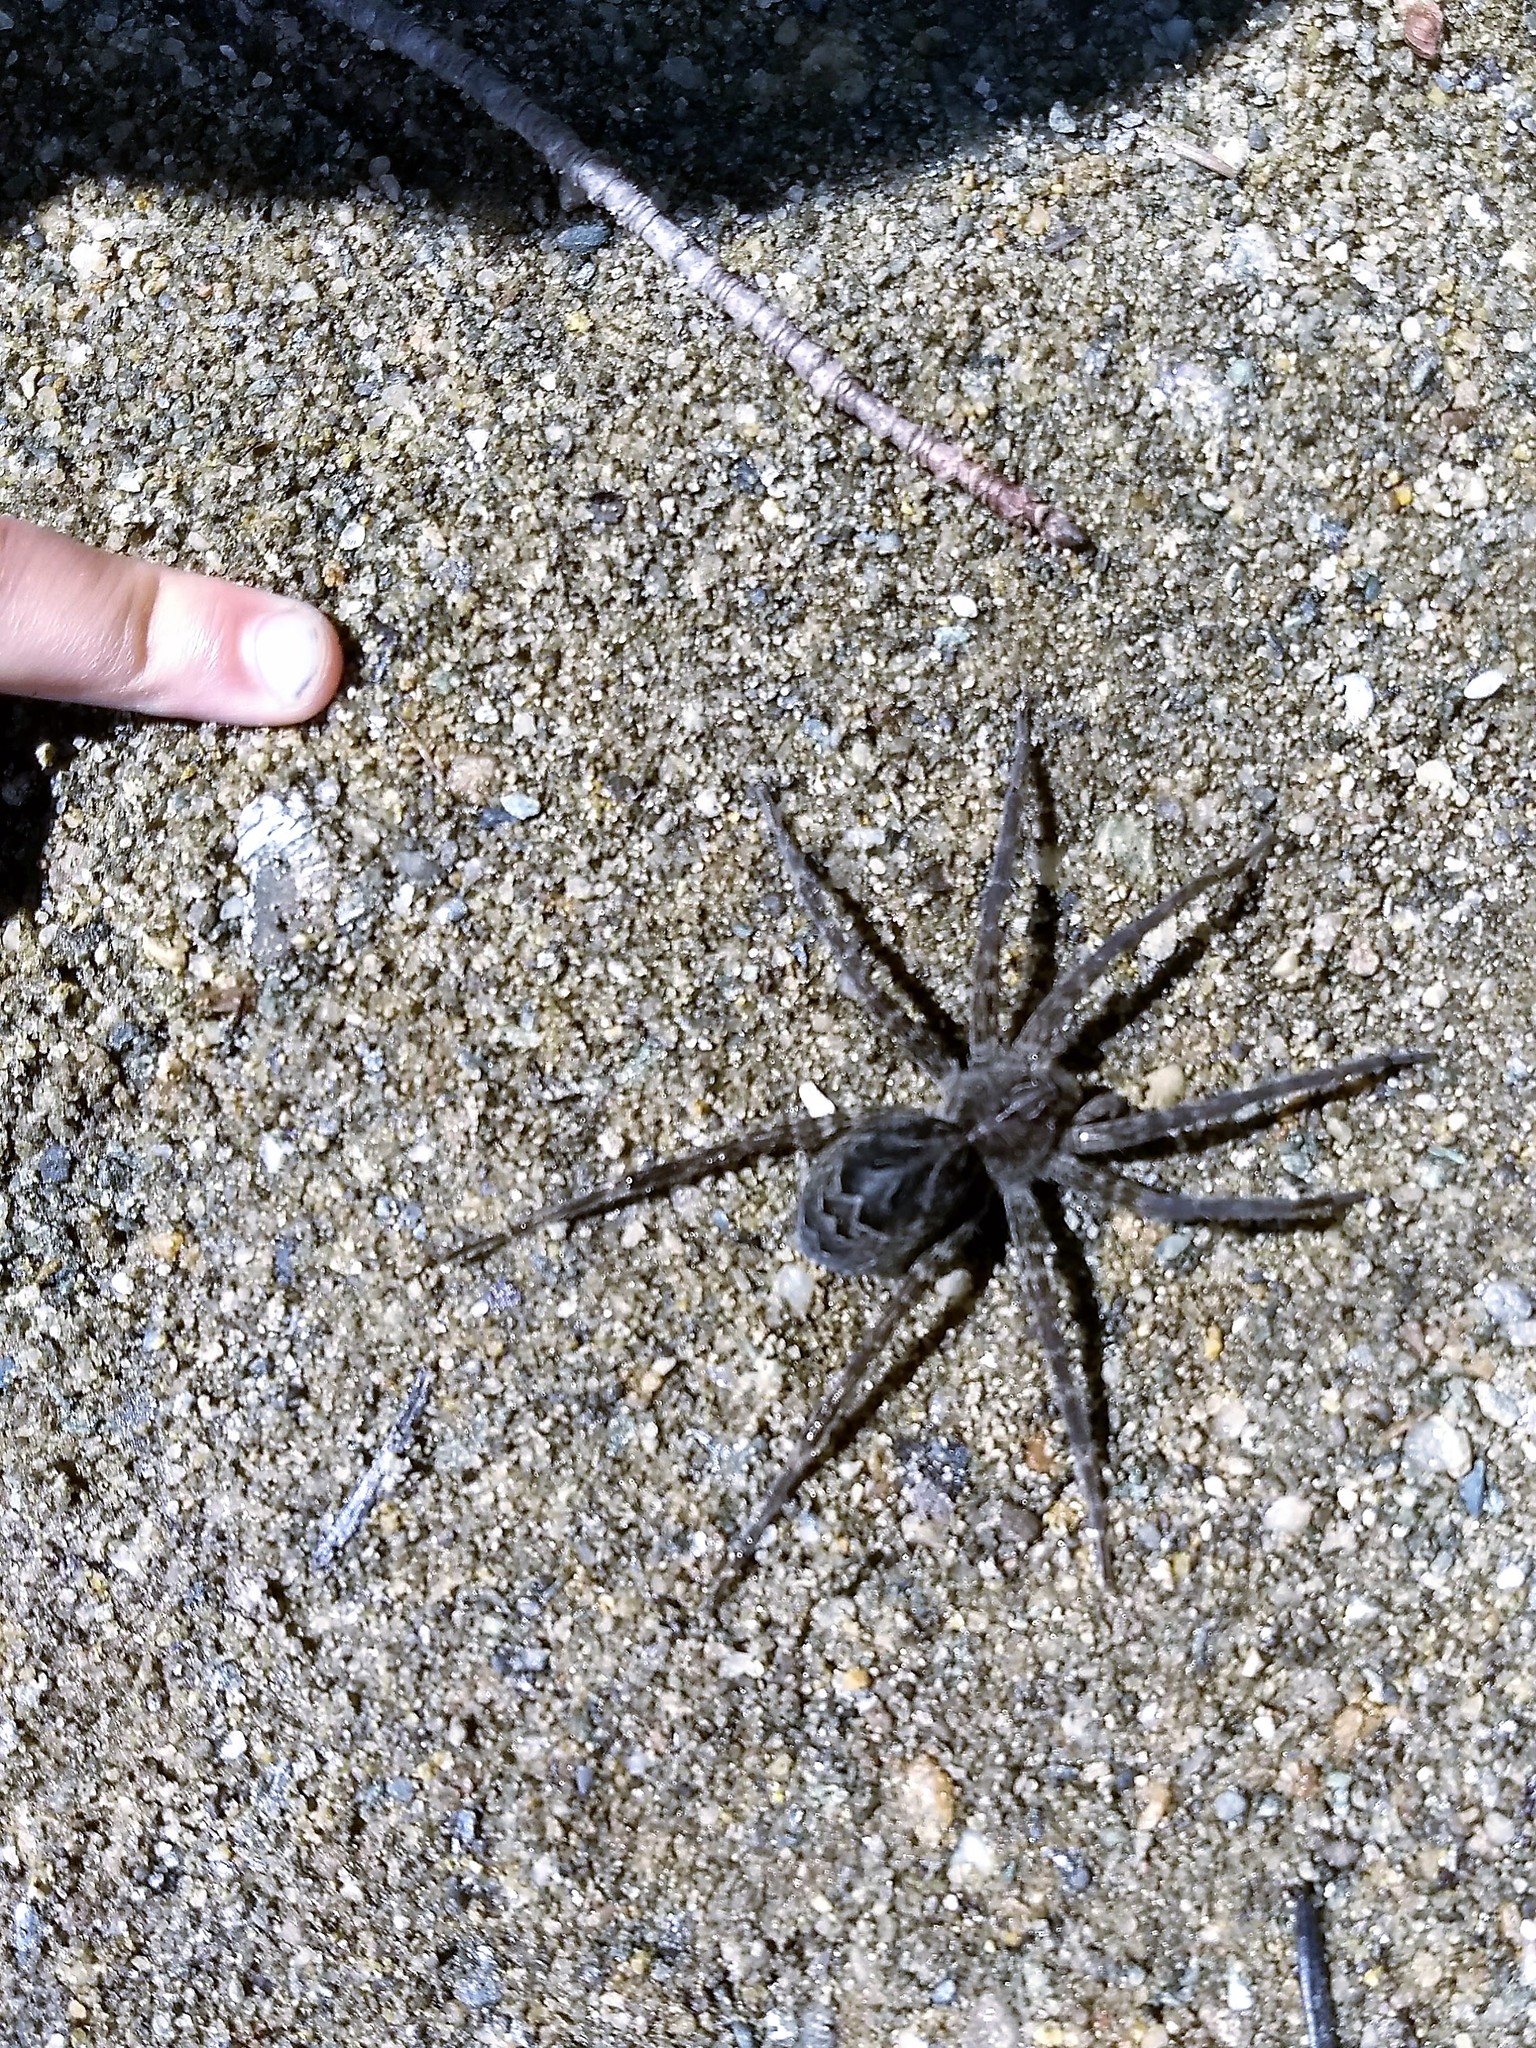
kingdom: Animalia
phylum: Arthropoda
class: Arachnida
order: Araneae
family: Pisauridae
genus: Dolomedes
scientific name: Dolomedes scriptus
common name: Striped fishing spider
